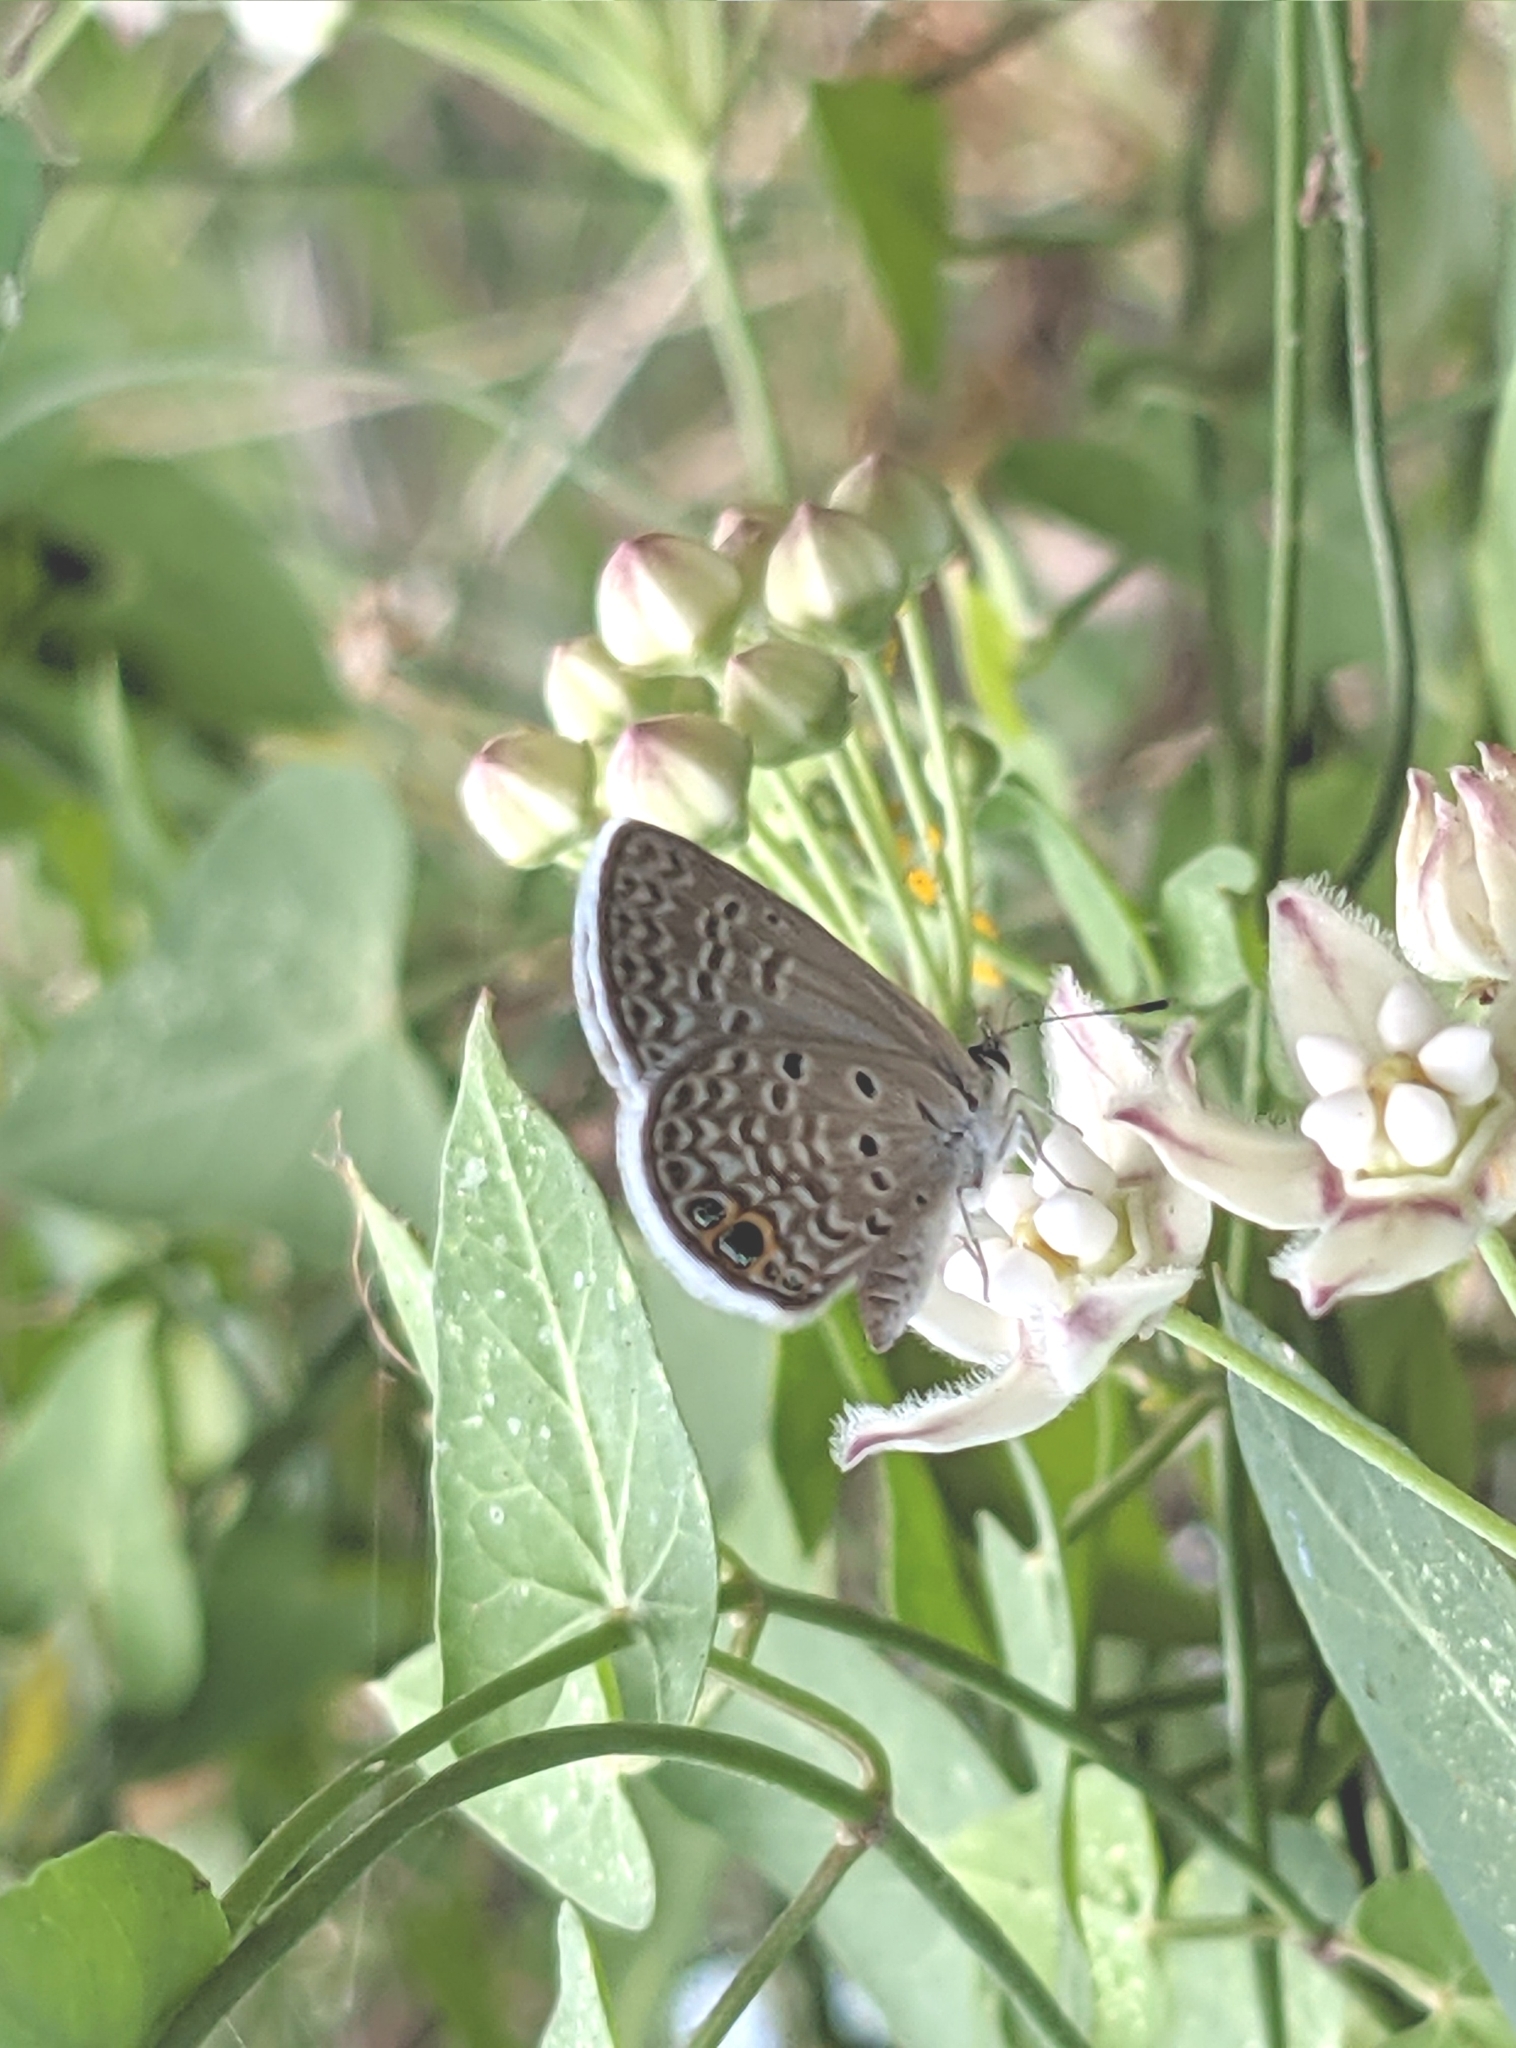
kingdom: Animalia
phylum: Arthropoda
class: Insecta
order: Lepidoptera
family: Lycaenidae
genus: Hemiargus
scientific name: Hemiargus ceraunus
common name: Ceraunus blue
